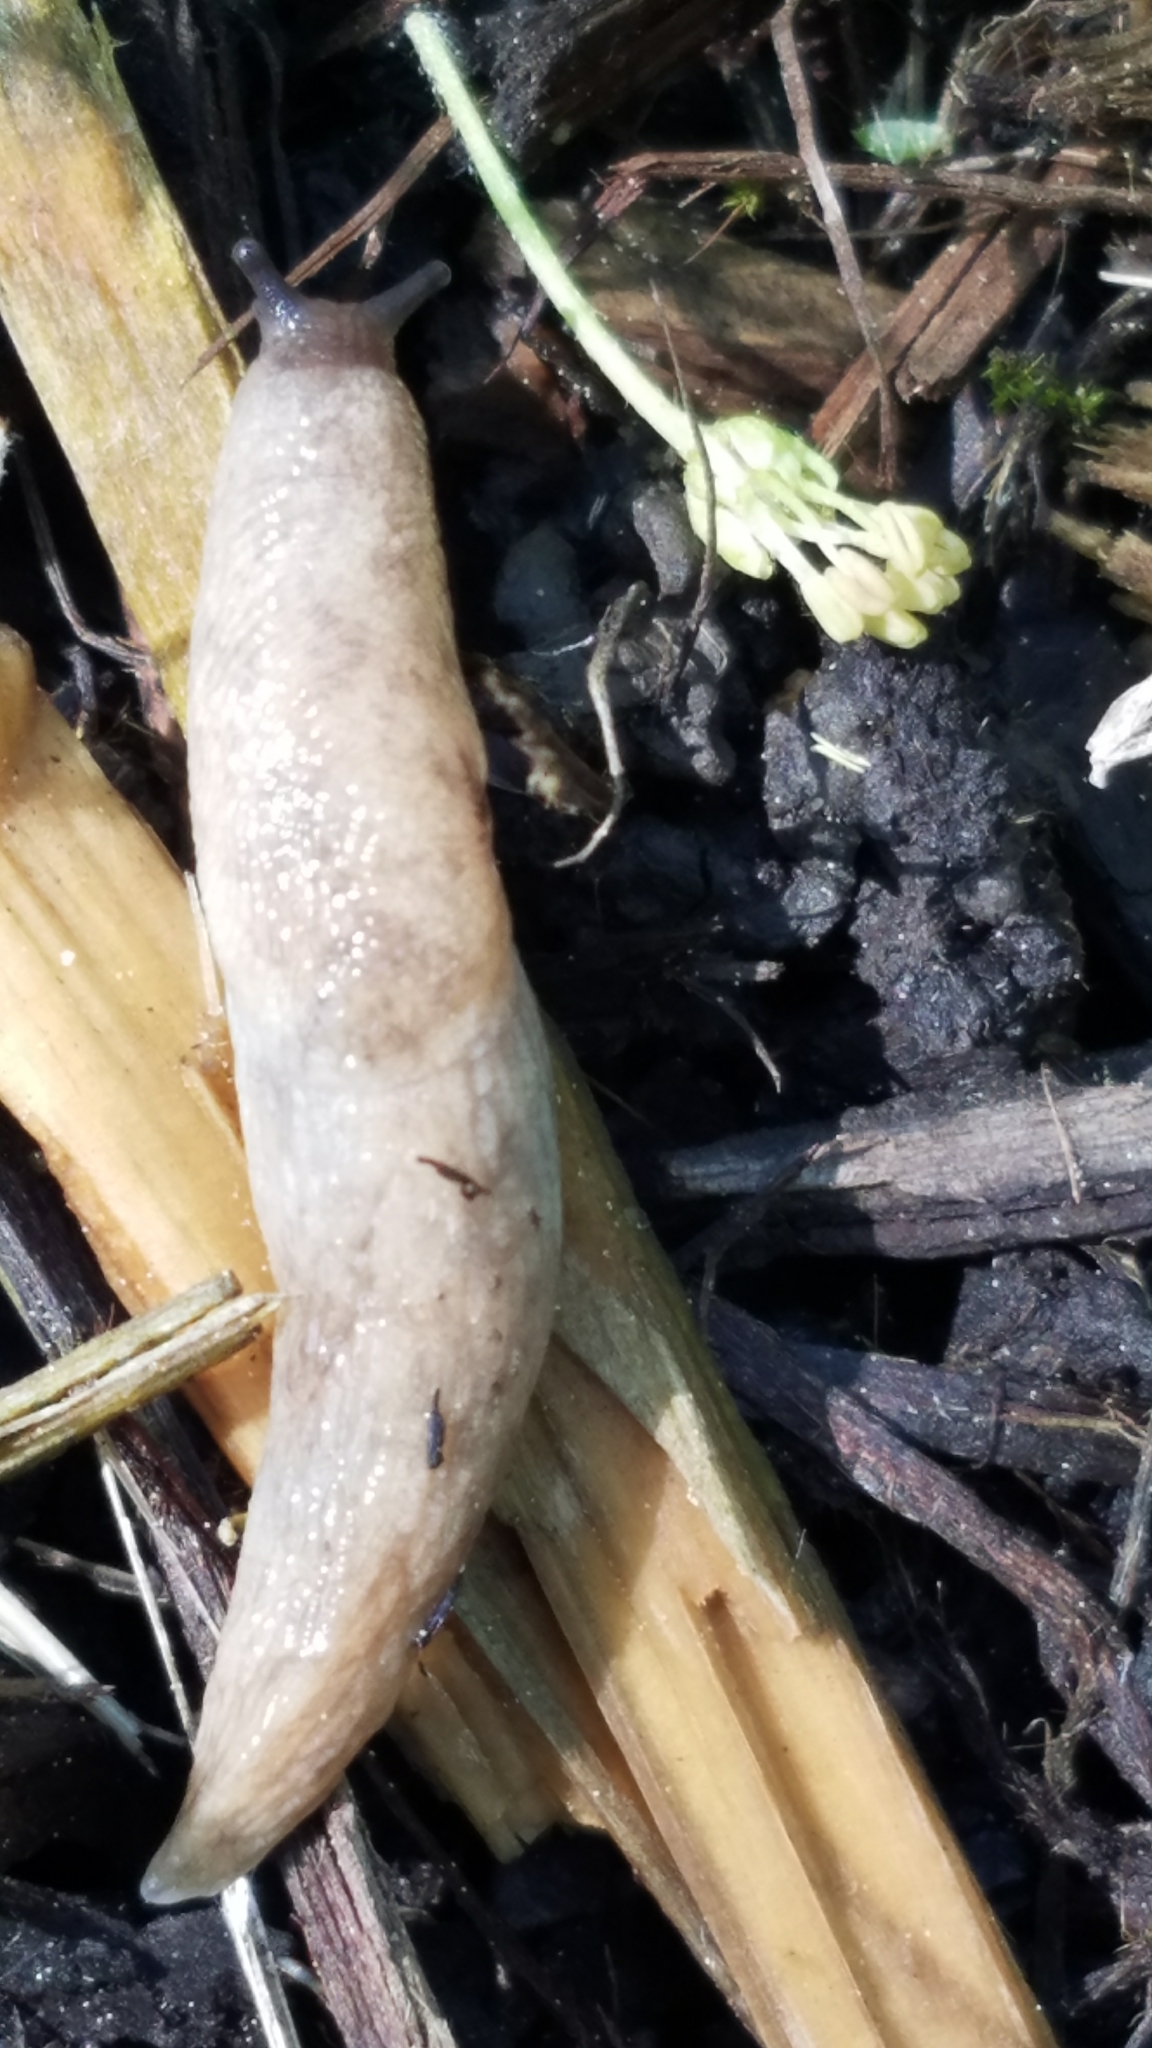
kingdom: Animalia
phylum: Mollusca
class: Gastropoda
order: Stylommatophora
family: Agriolimacidae
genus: Deroceras
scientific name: Deroceras reticulatum
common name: Gray field slug
